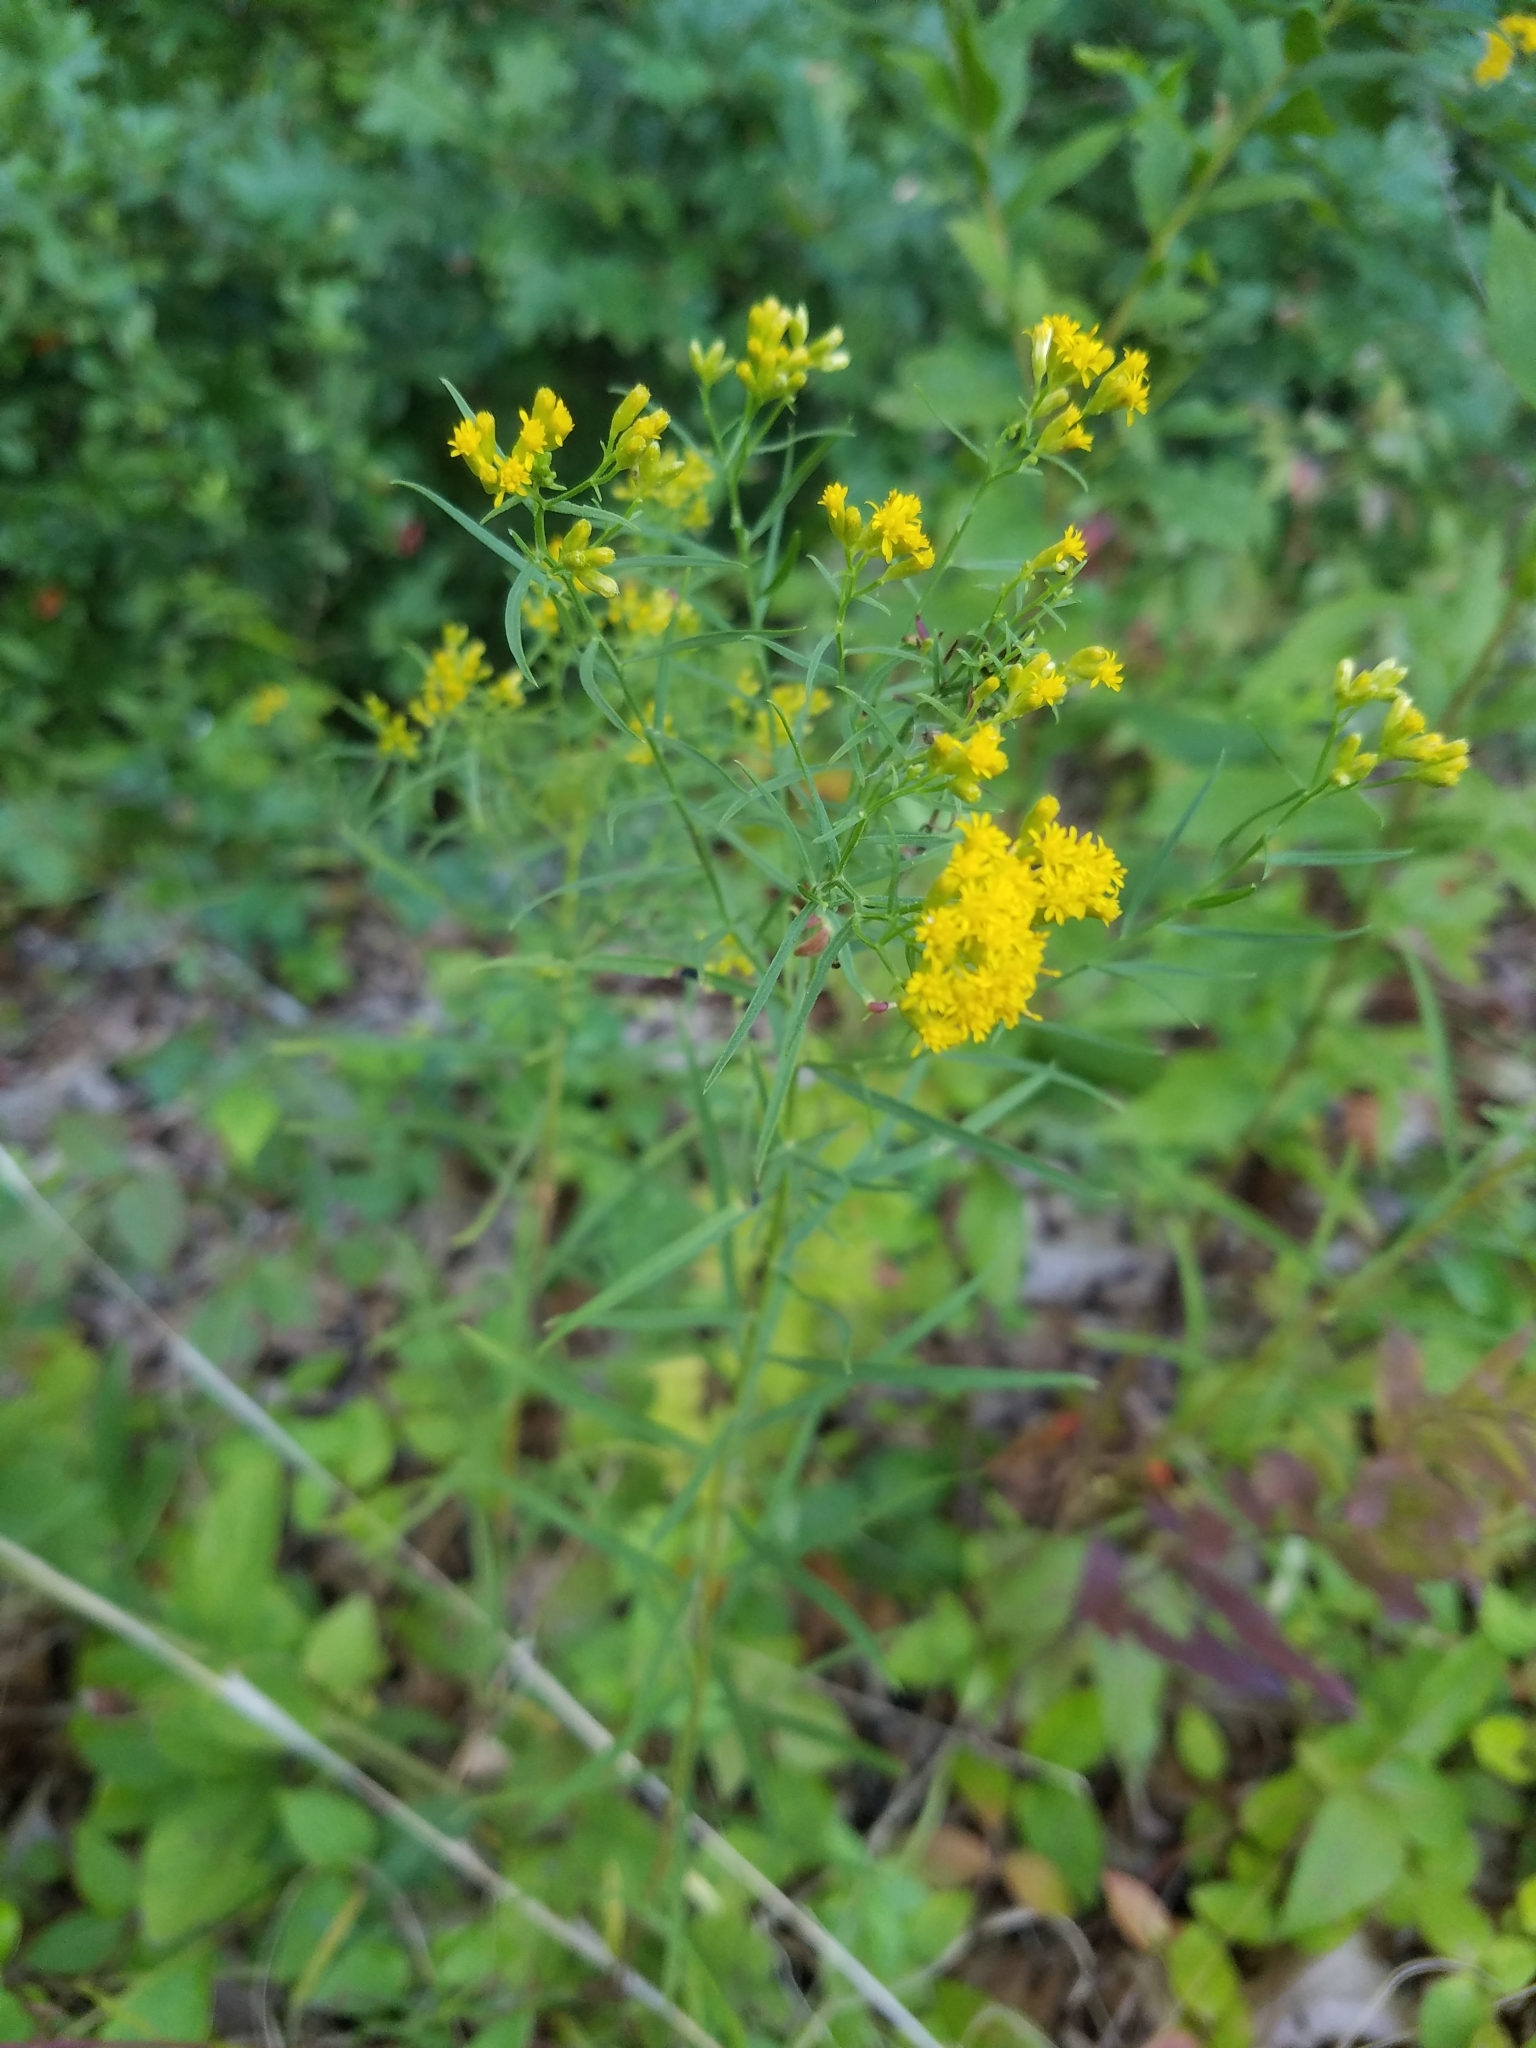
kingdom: Plantae
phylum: Tracheophyta
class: Magnoliopsida
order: Asterales
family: Asteraceae
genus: Euthamia
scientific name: Euthamia graminifolia
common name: Common goldentop
